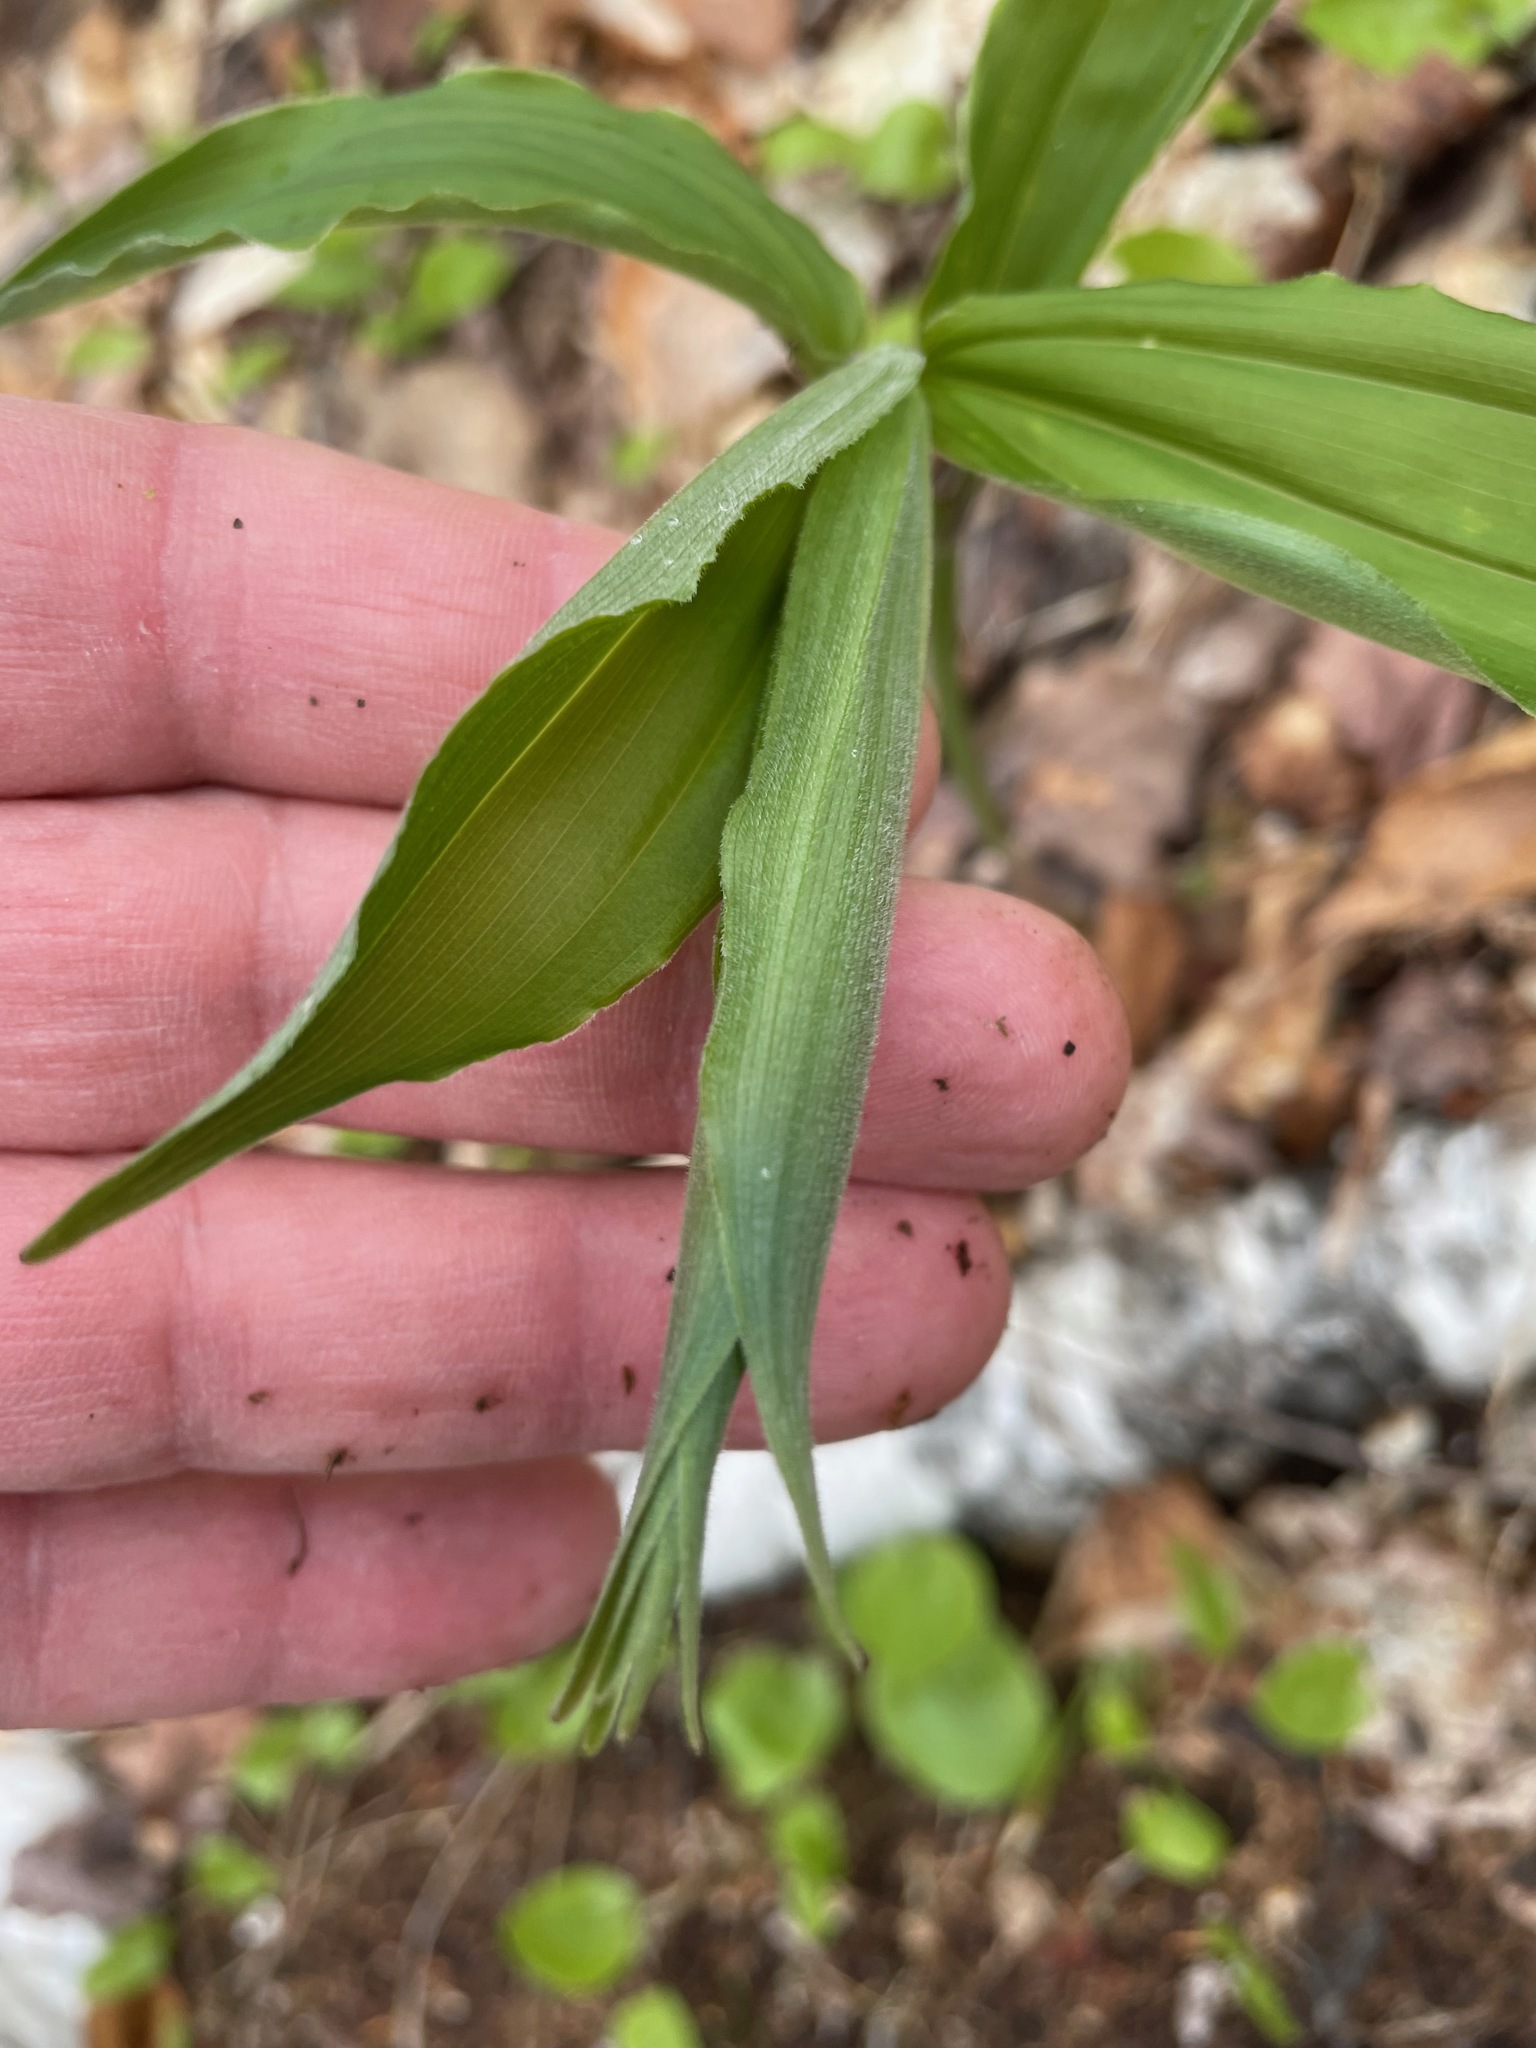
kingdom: Plantae
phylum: Tracheophyta
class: Liliopsida
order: Asparagales
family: Asparagaceae
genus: Maianthemum
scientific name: Maianthemum racemosum
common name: False spikenard
